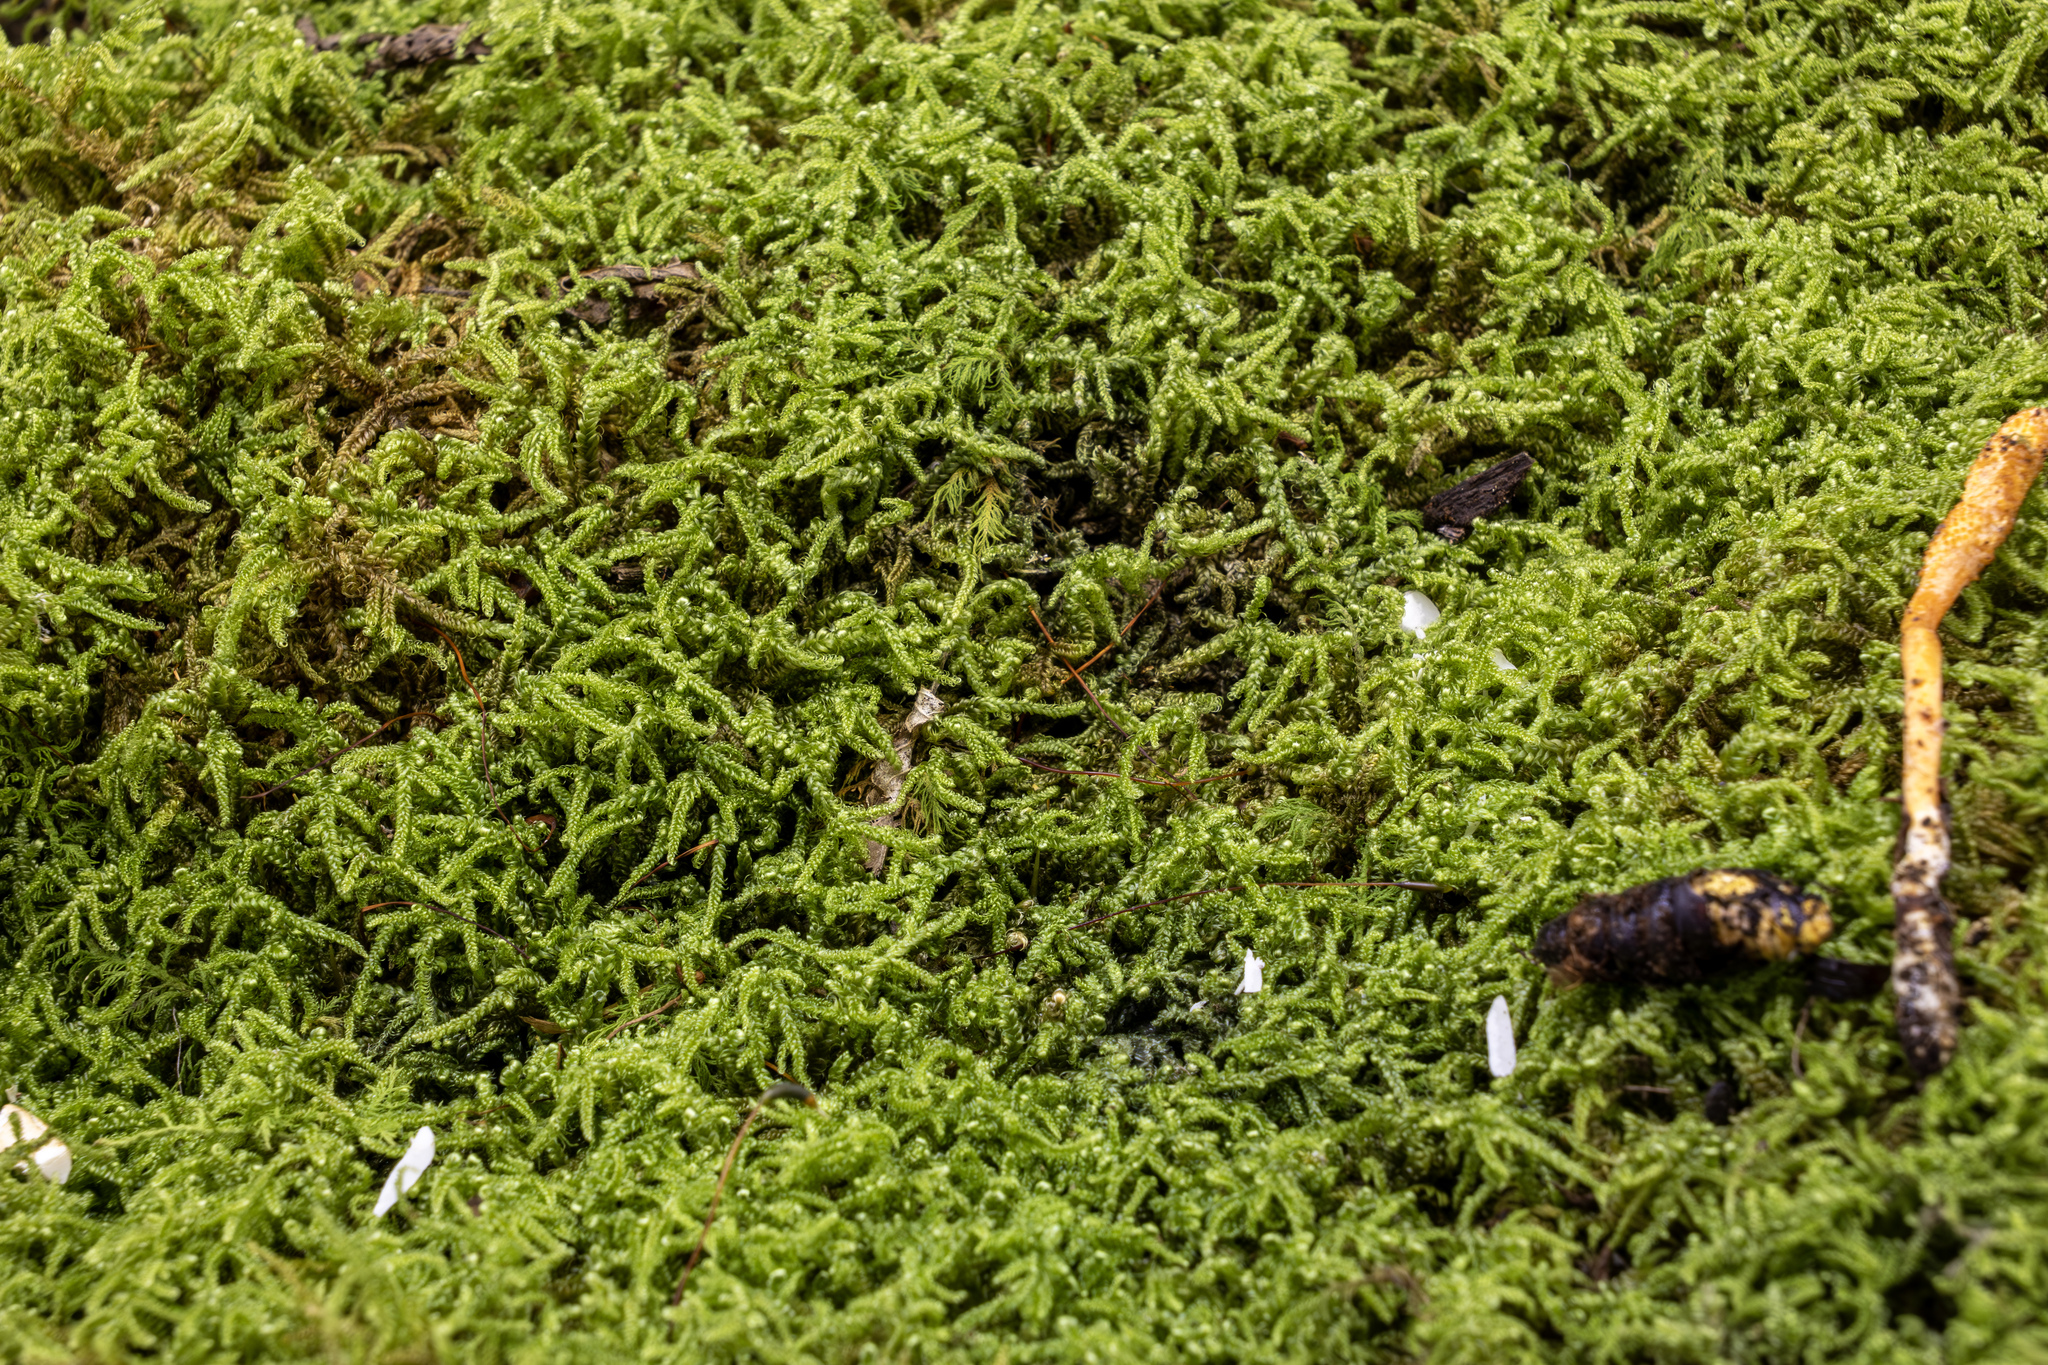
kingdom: Fungi
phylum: Ascomycota
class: Sordariomycetes
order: Hypocreales
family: Cordycipitaceae
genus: Cordyceps
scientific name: Cordyceps militaris
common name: Scarlet caterpillar fungus
